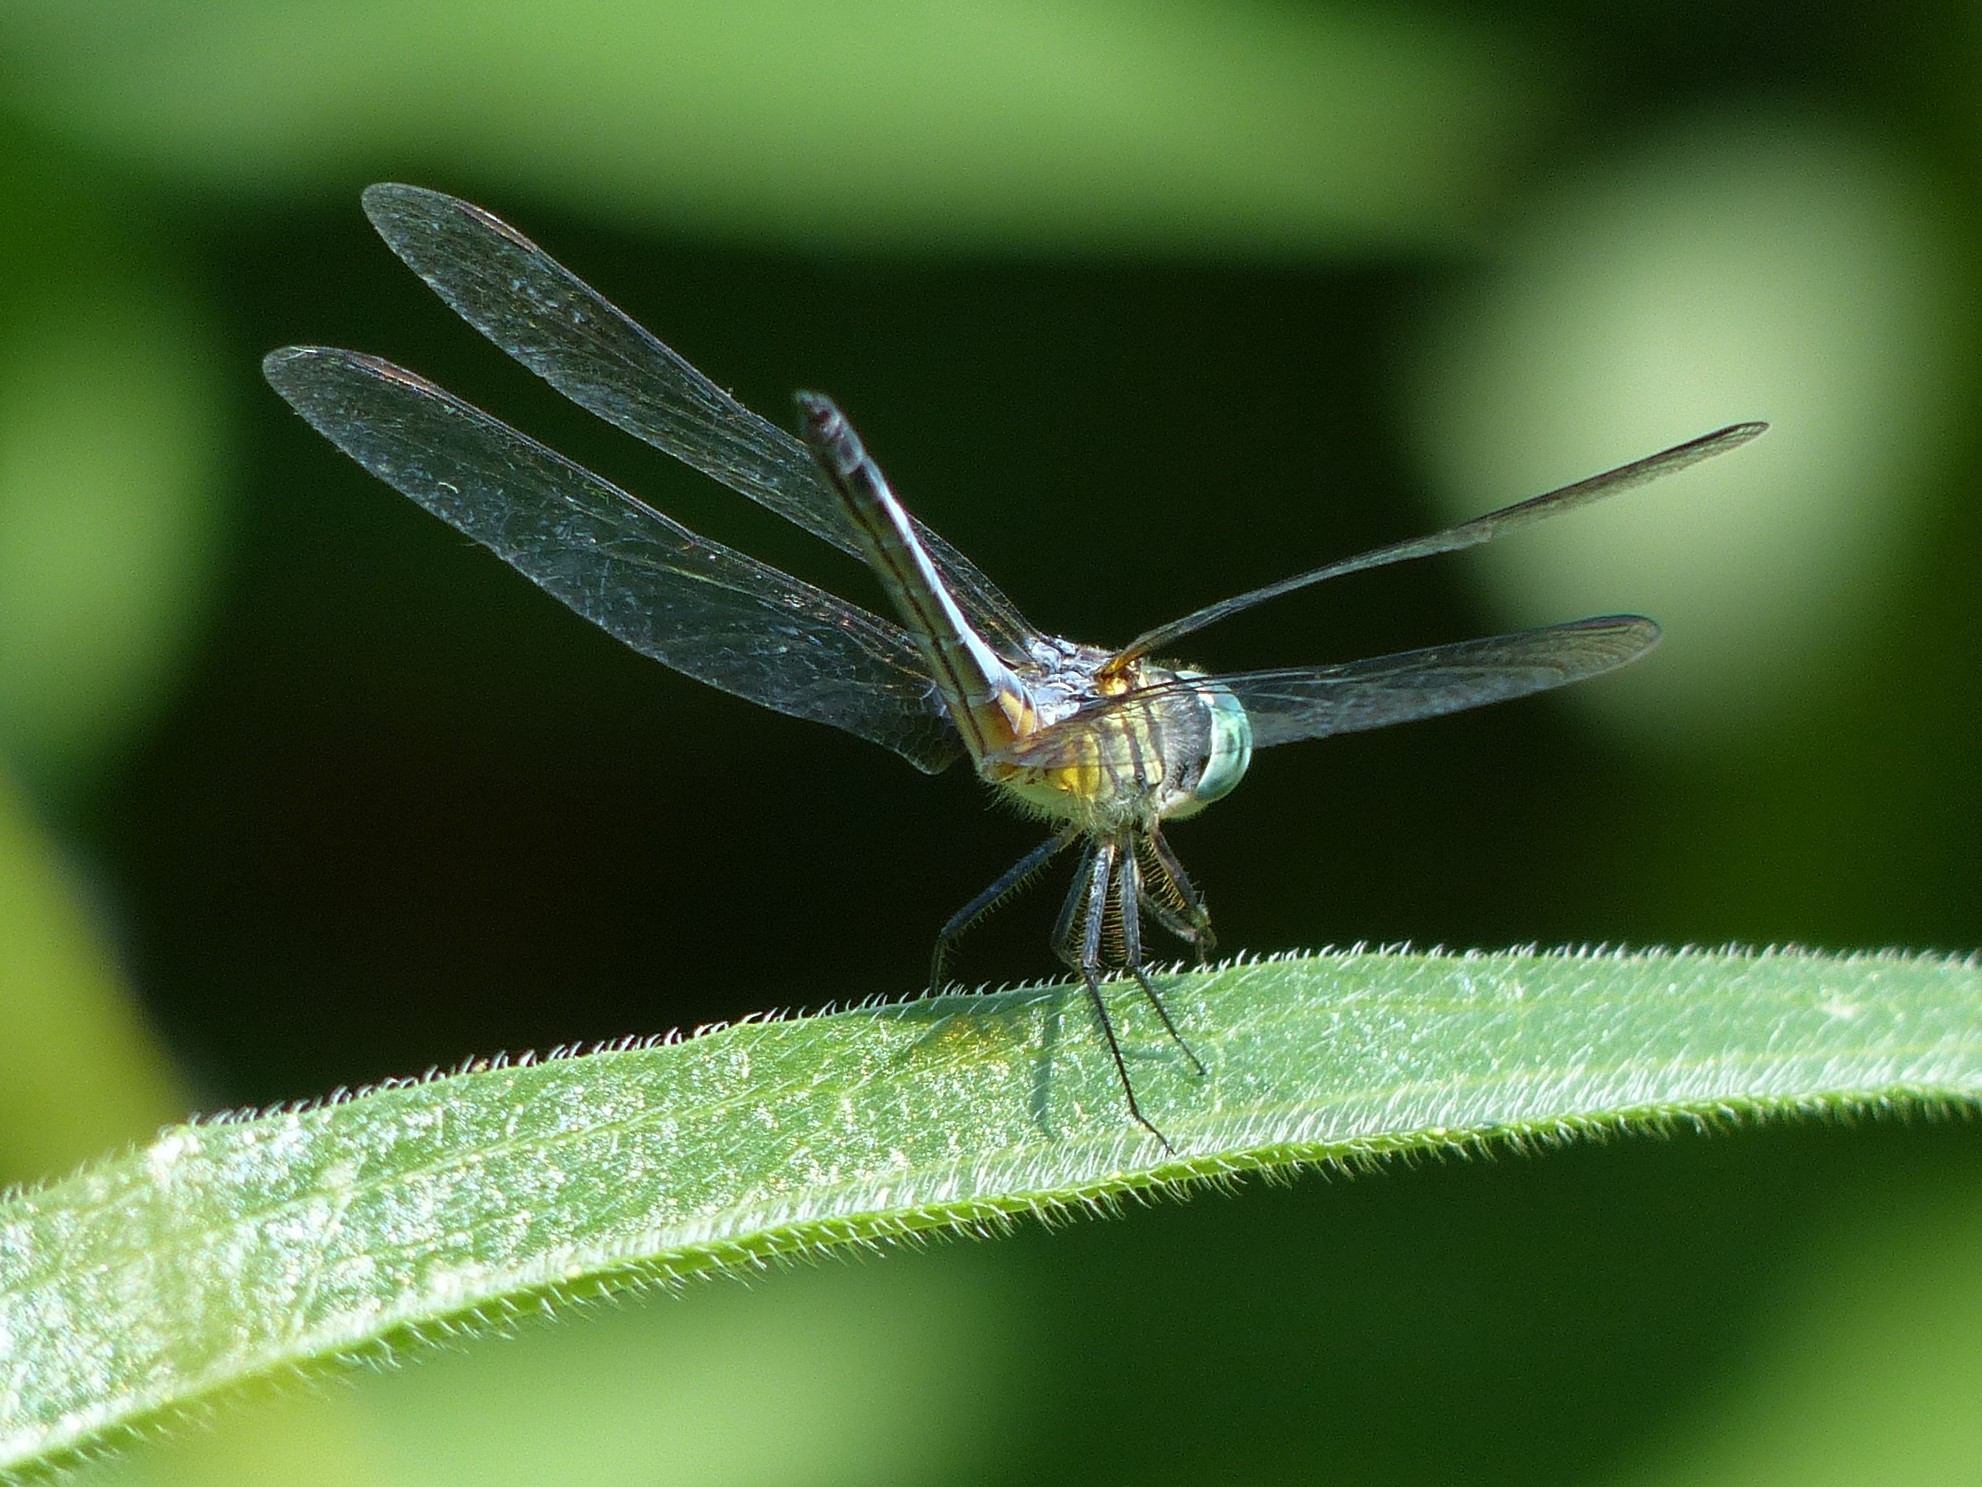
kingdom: Animalia
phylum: Arthropoda
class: Insecta
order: Odonata
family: Libellulidae
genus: Pachydiplax
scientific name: Pachydiplax longipennis
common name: Blue dasher
